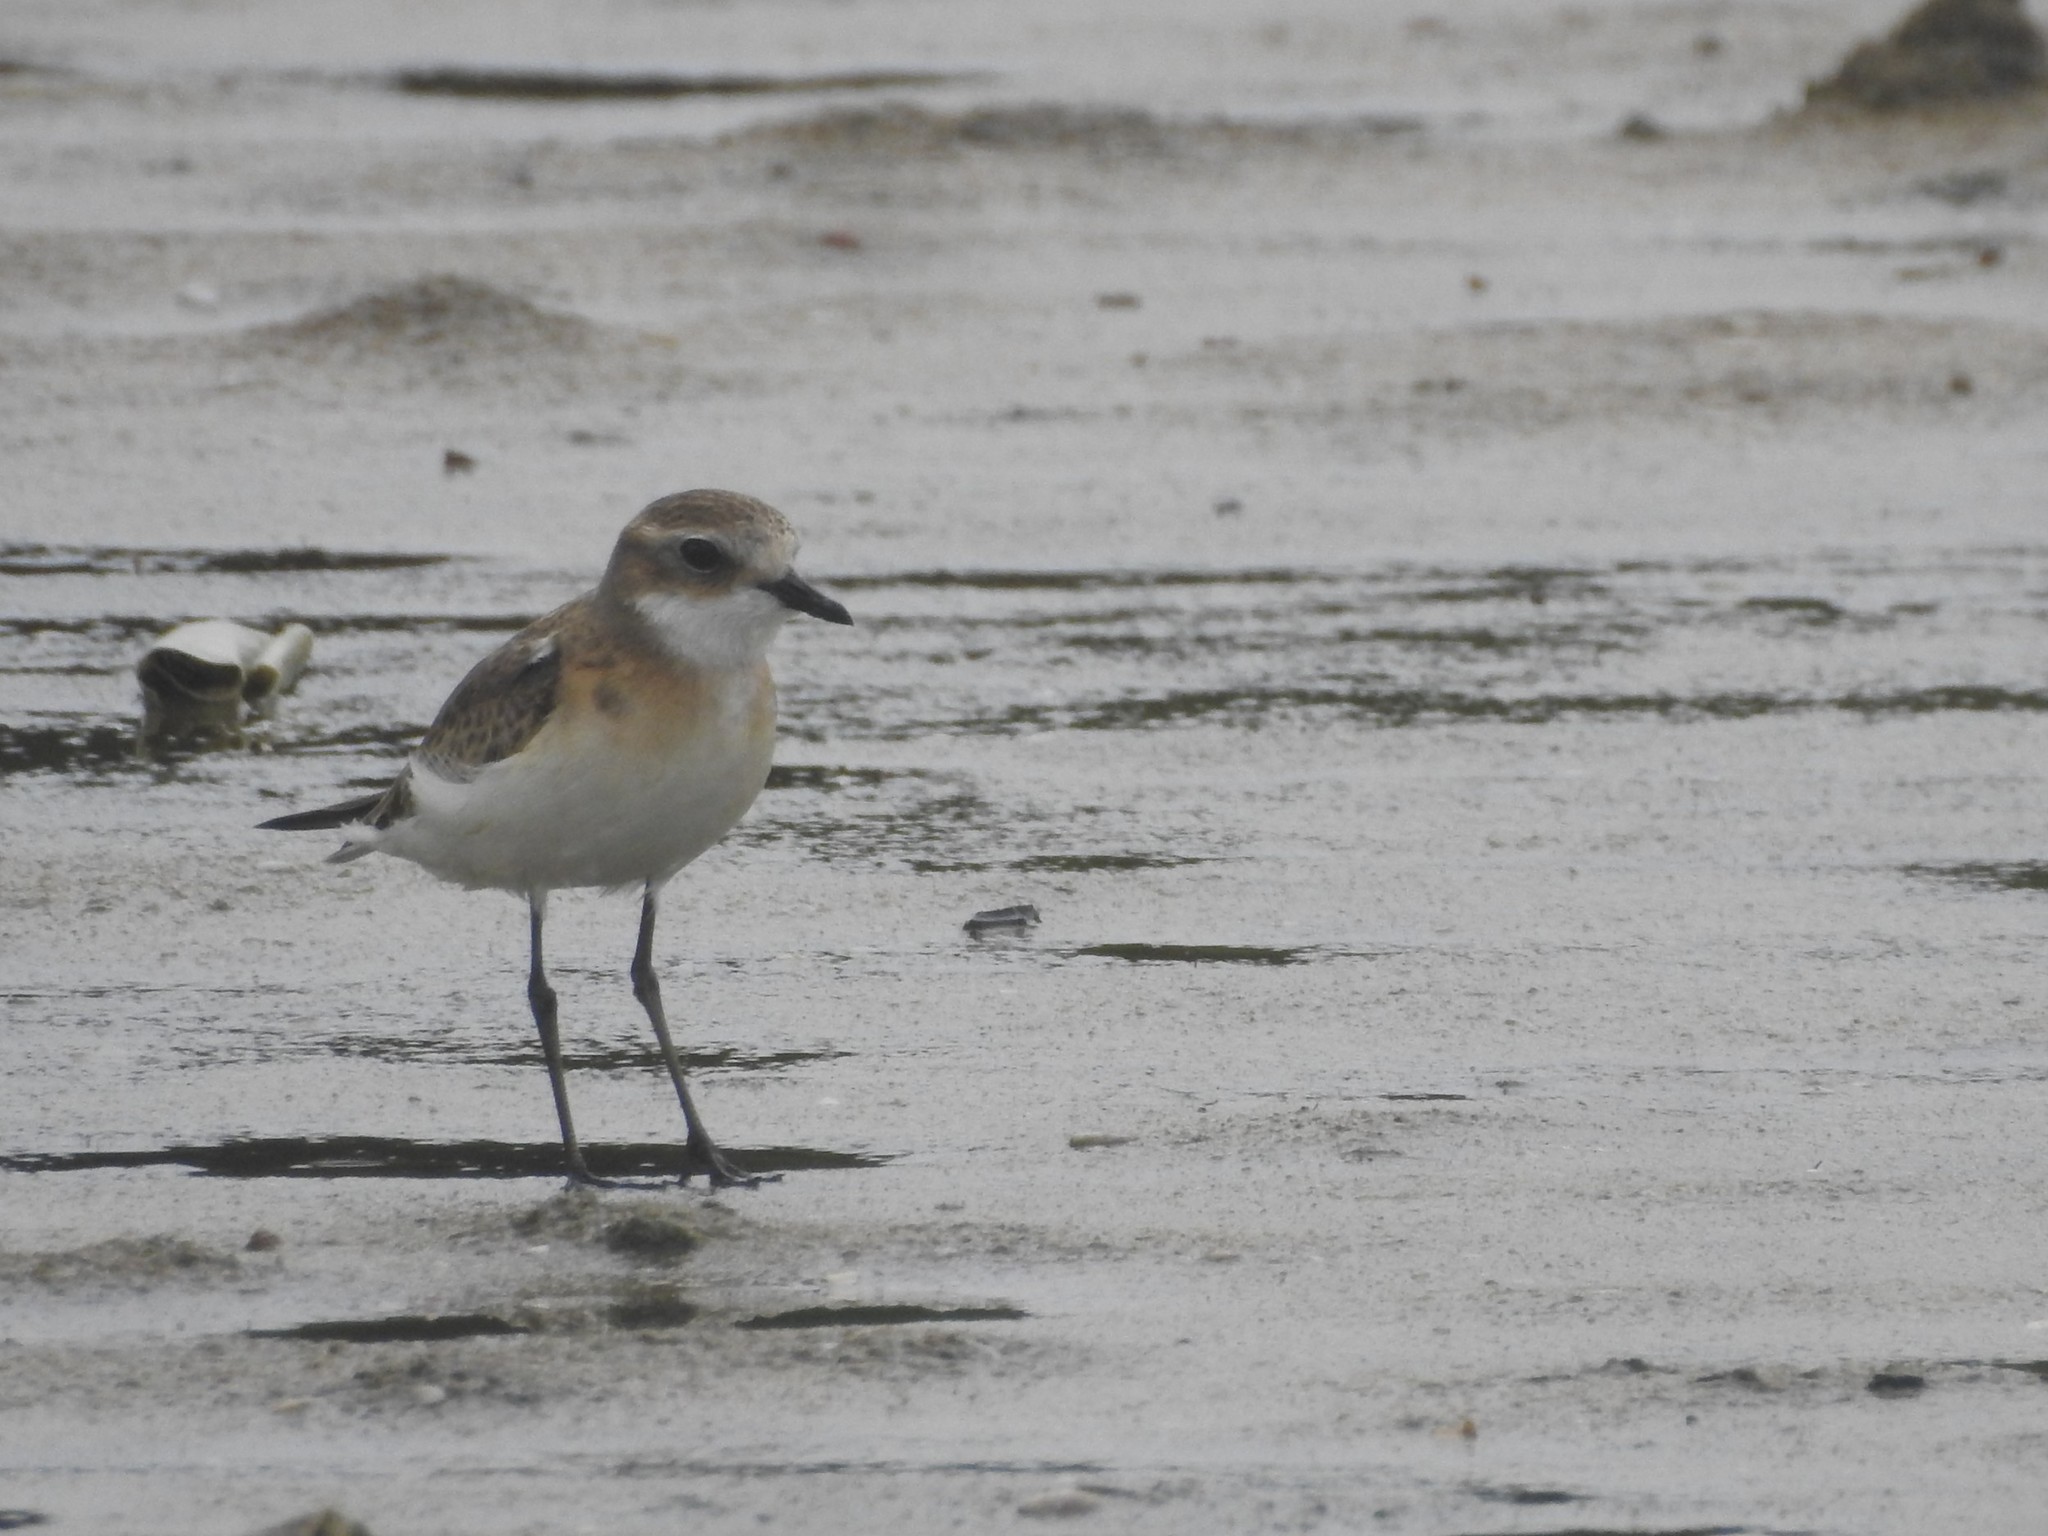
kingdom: Animalia
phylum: Chordata
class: Aves
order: Charadriiformes
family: Charadriidae
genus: Anarhynchus
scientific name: Anarhynchus
